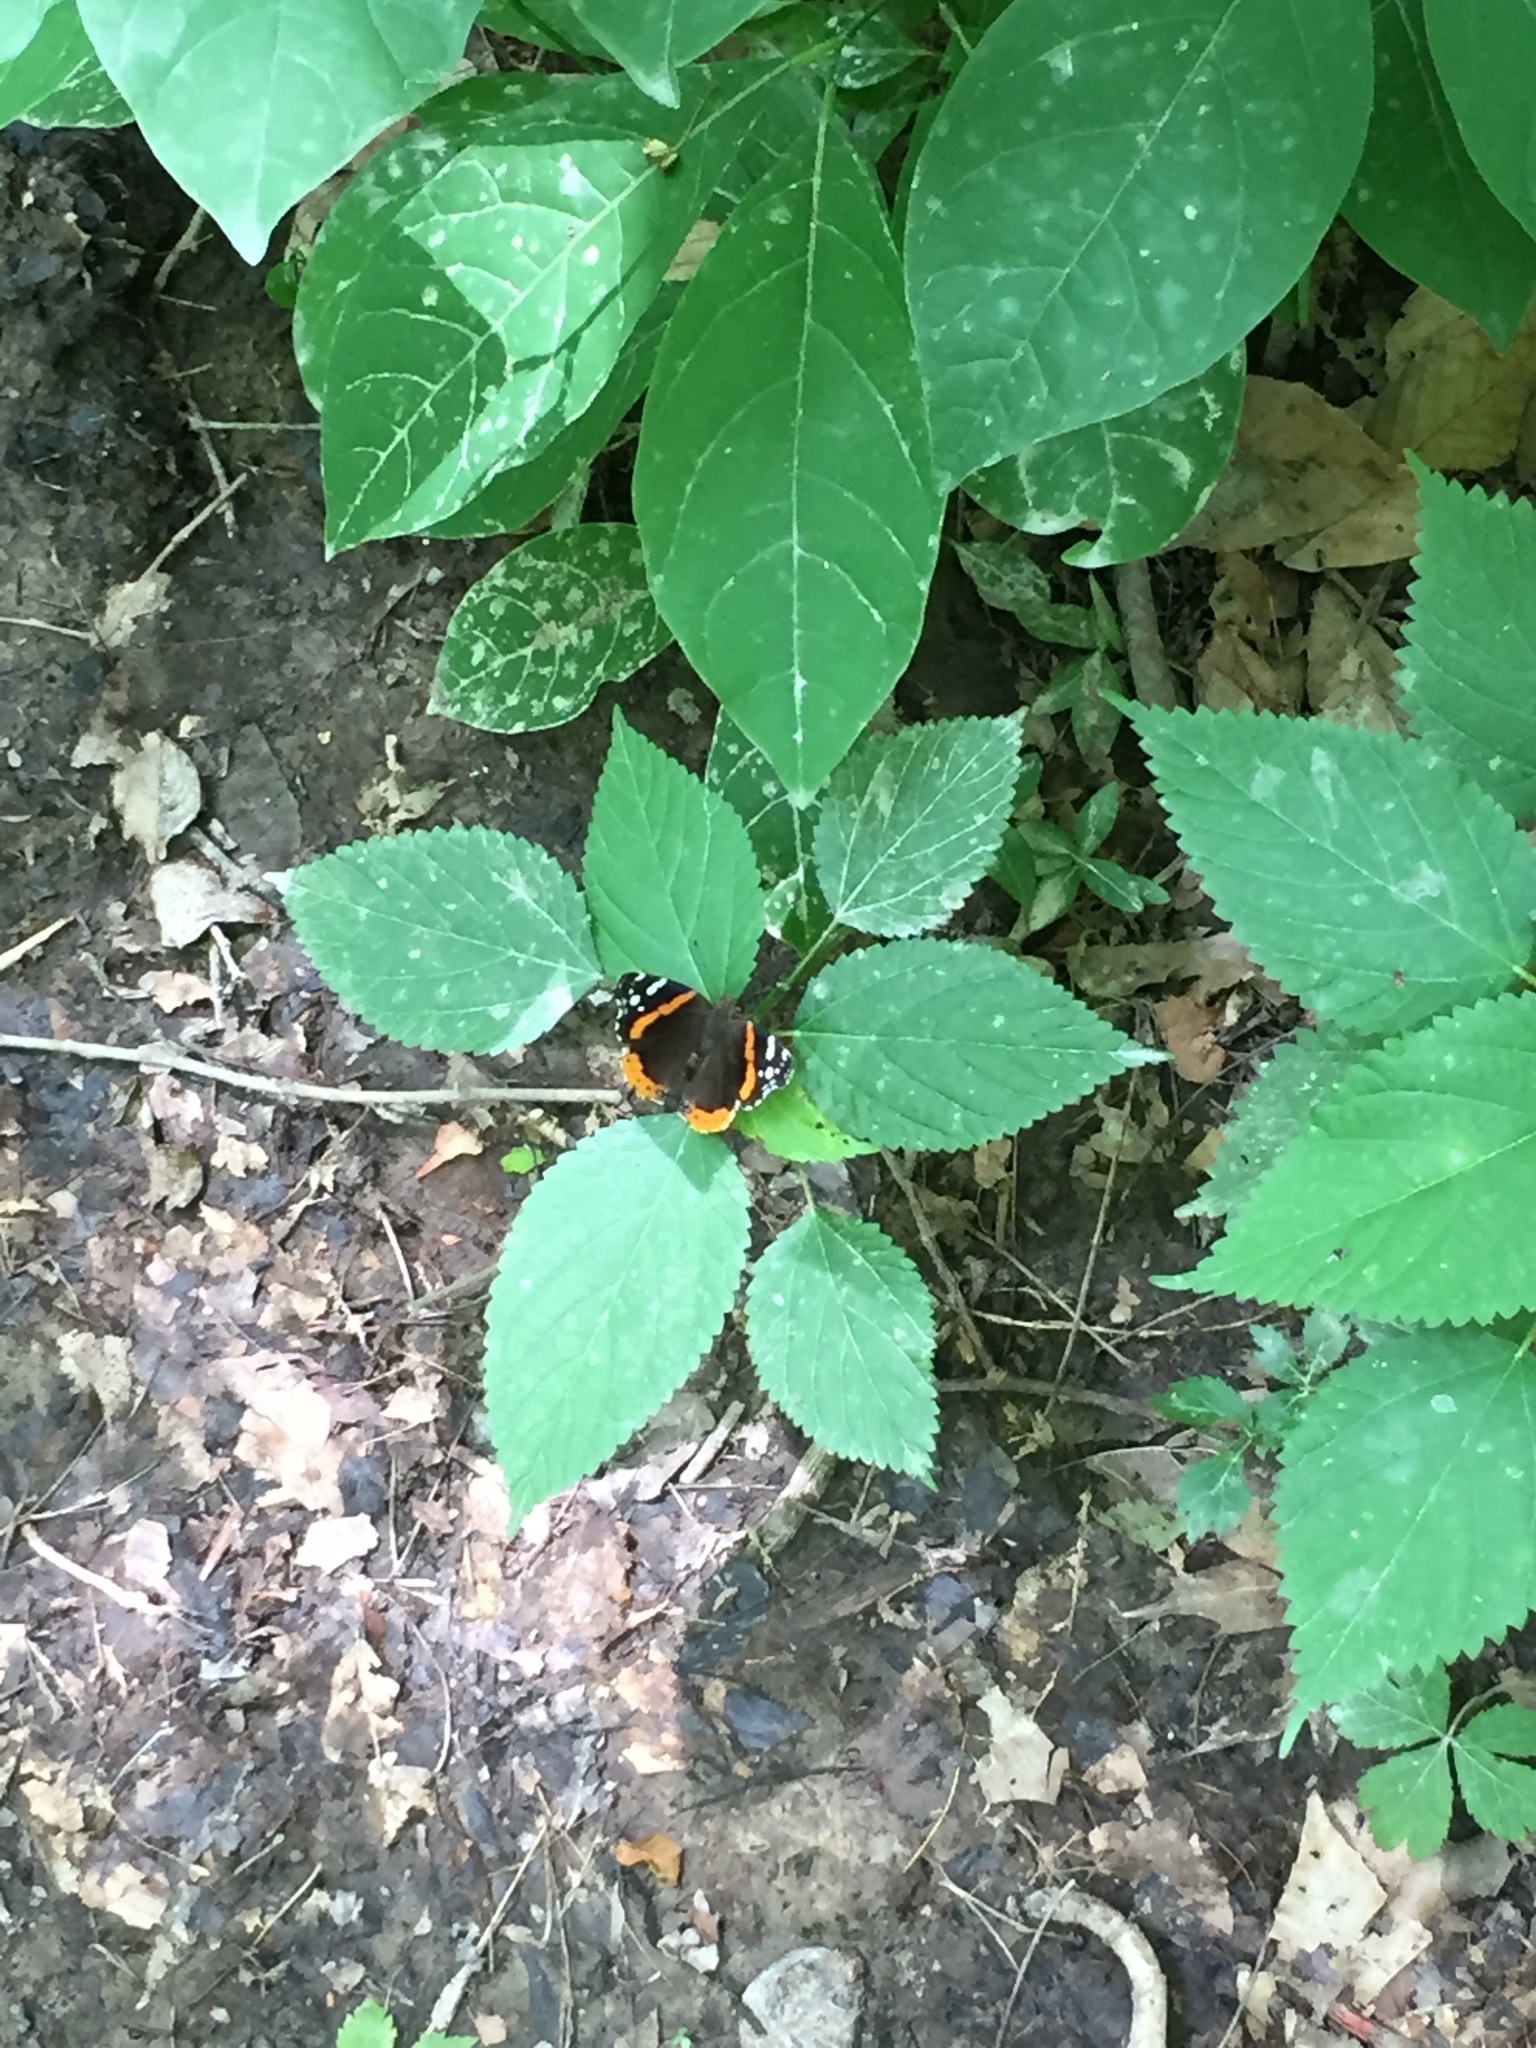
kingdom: Animalia
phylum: Arthropoda
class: Insecta
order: Lepidoptera
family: Nymphalidae
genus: Vanessa
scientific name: Vanessa atalanta
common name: Red admiral
